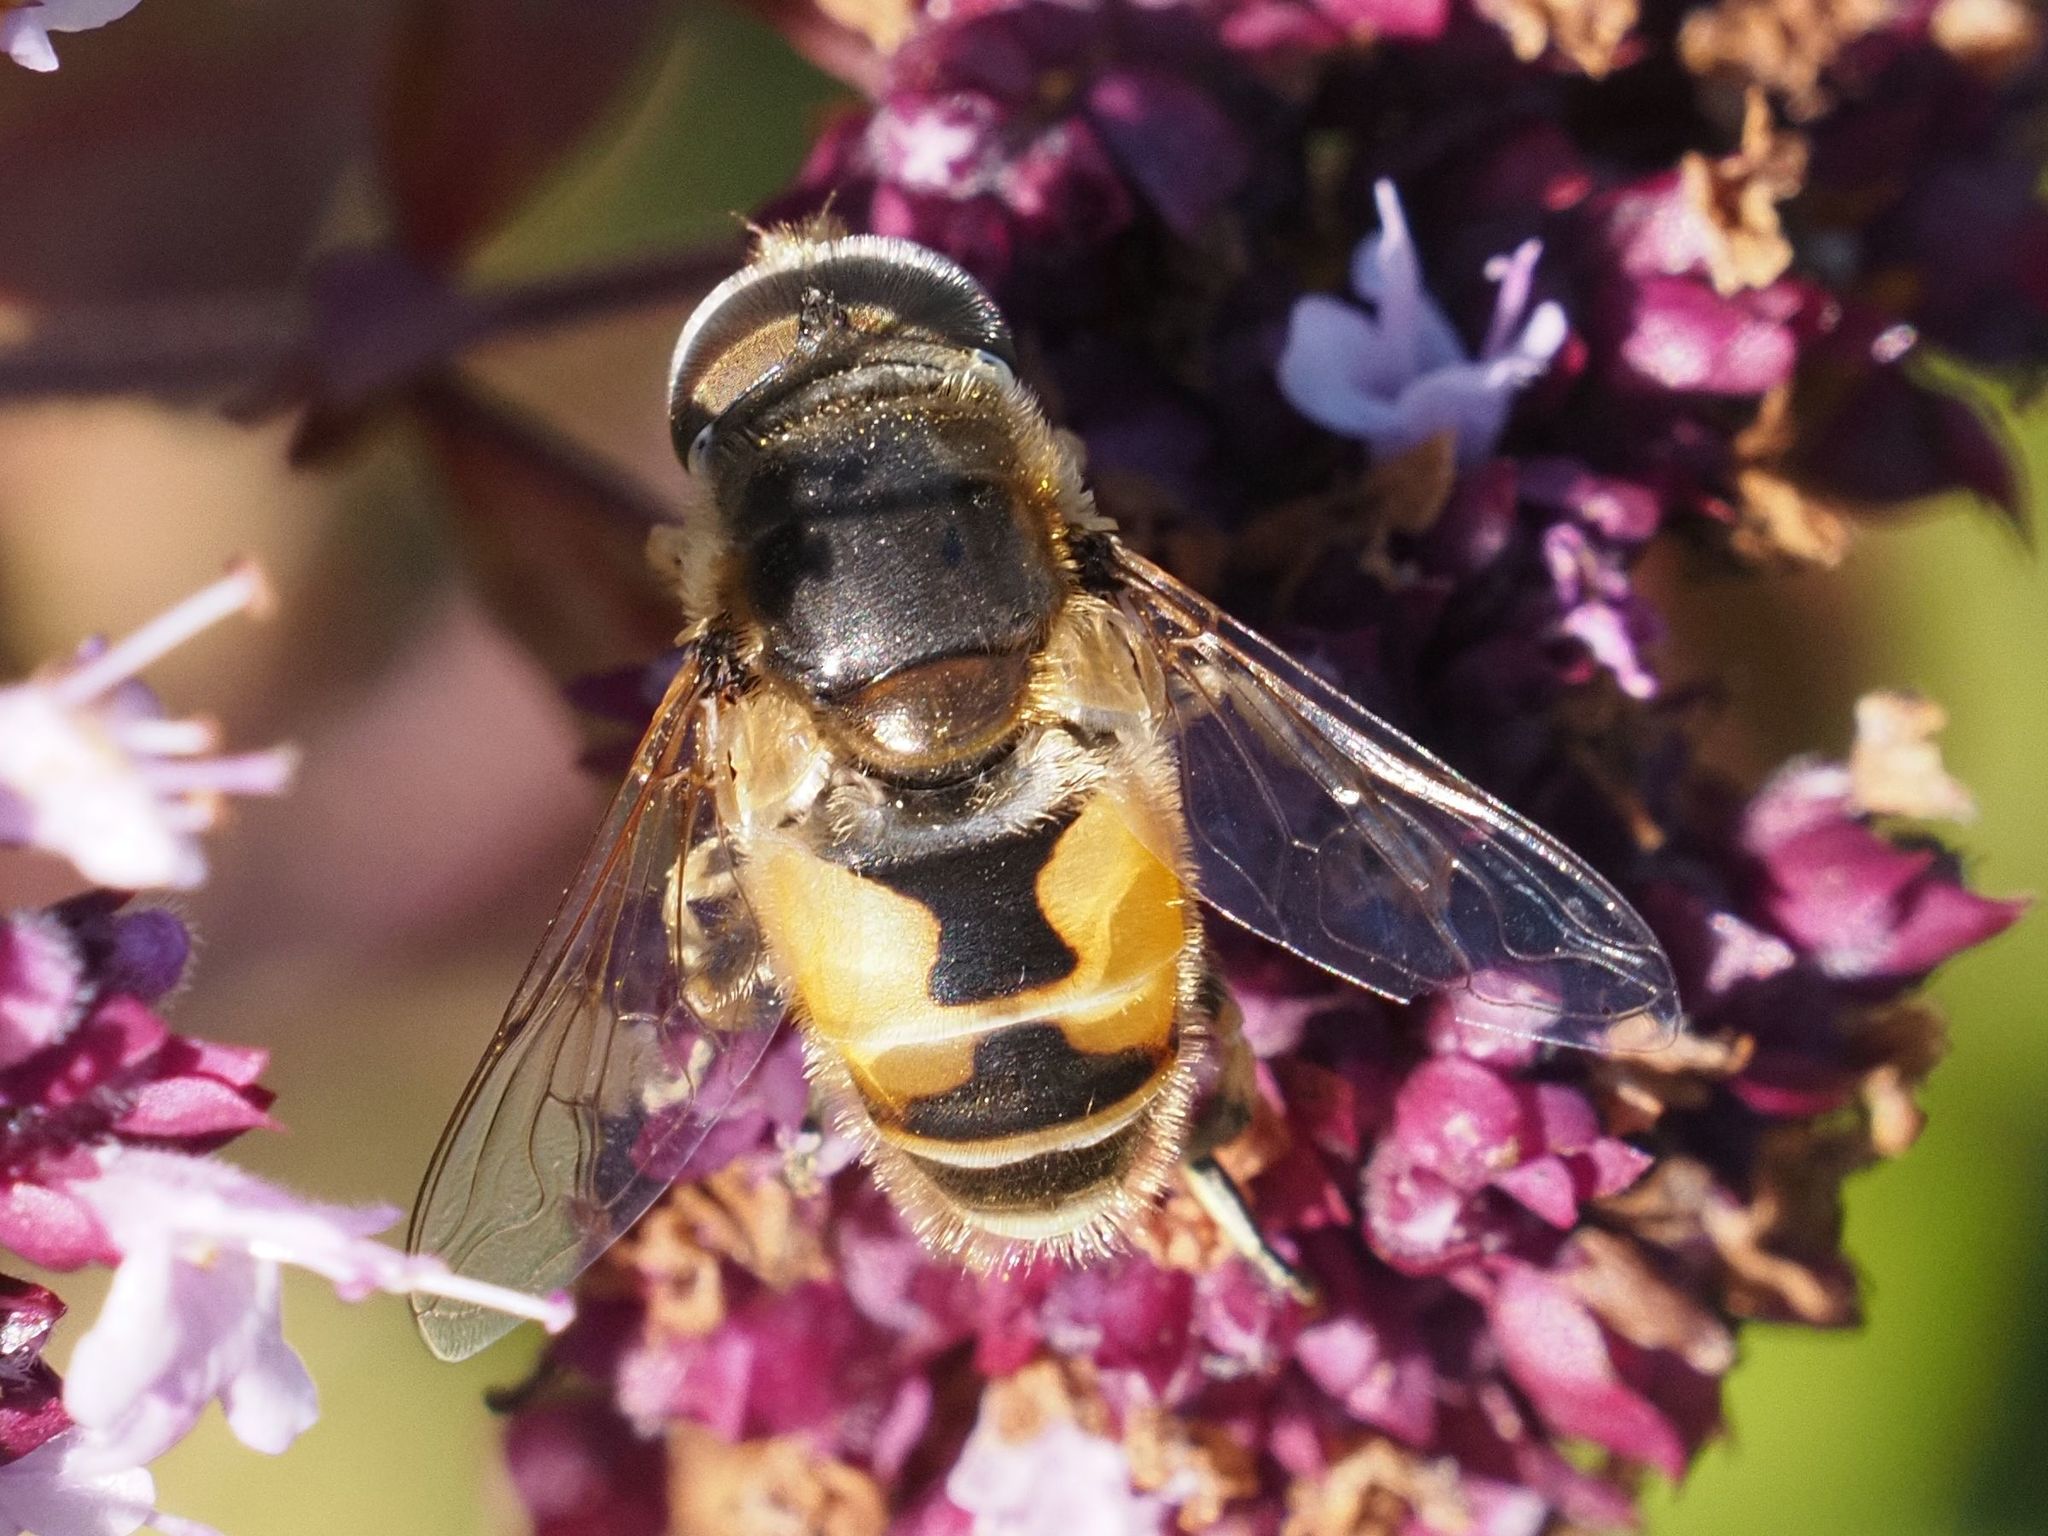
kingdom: Animalia
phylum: Arthropoda
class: Insecta
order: Diptera
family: Syrphidae
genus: Eristalis
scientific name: Eristalis arbustorum
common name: Hover fly
